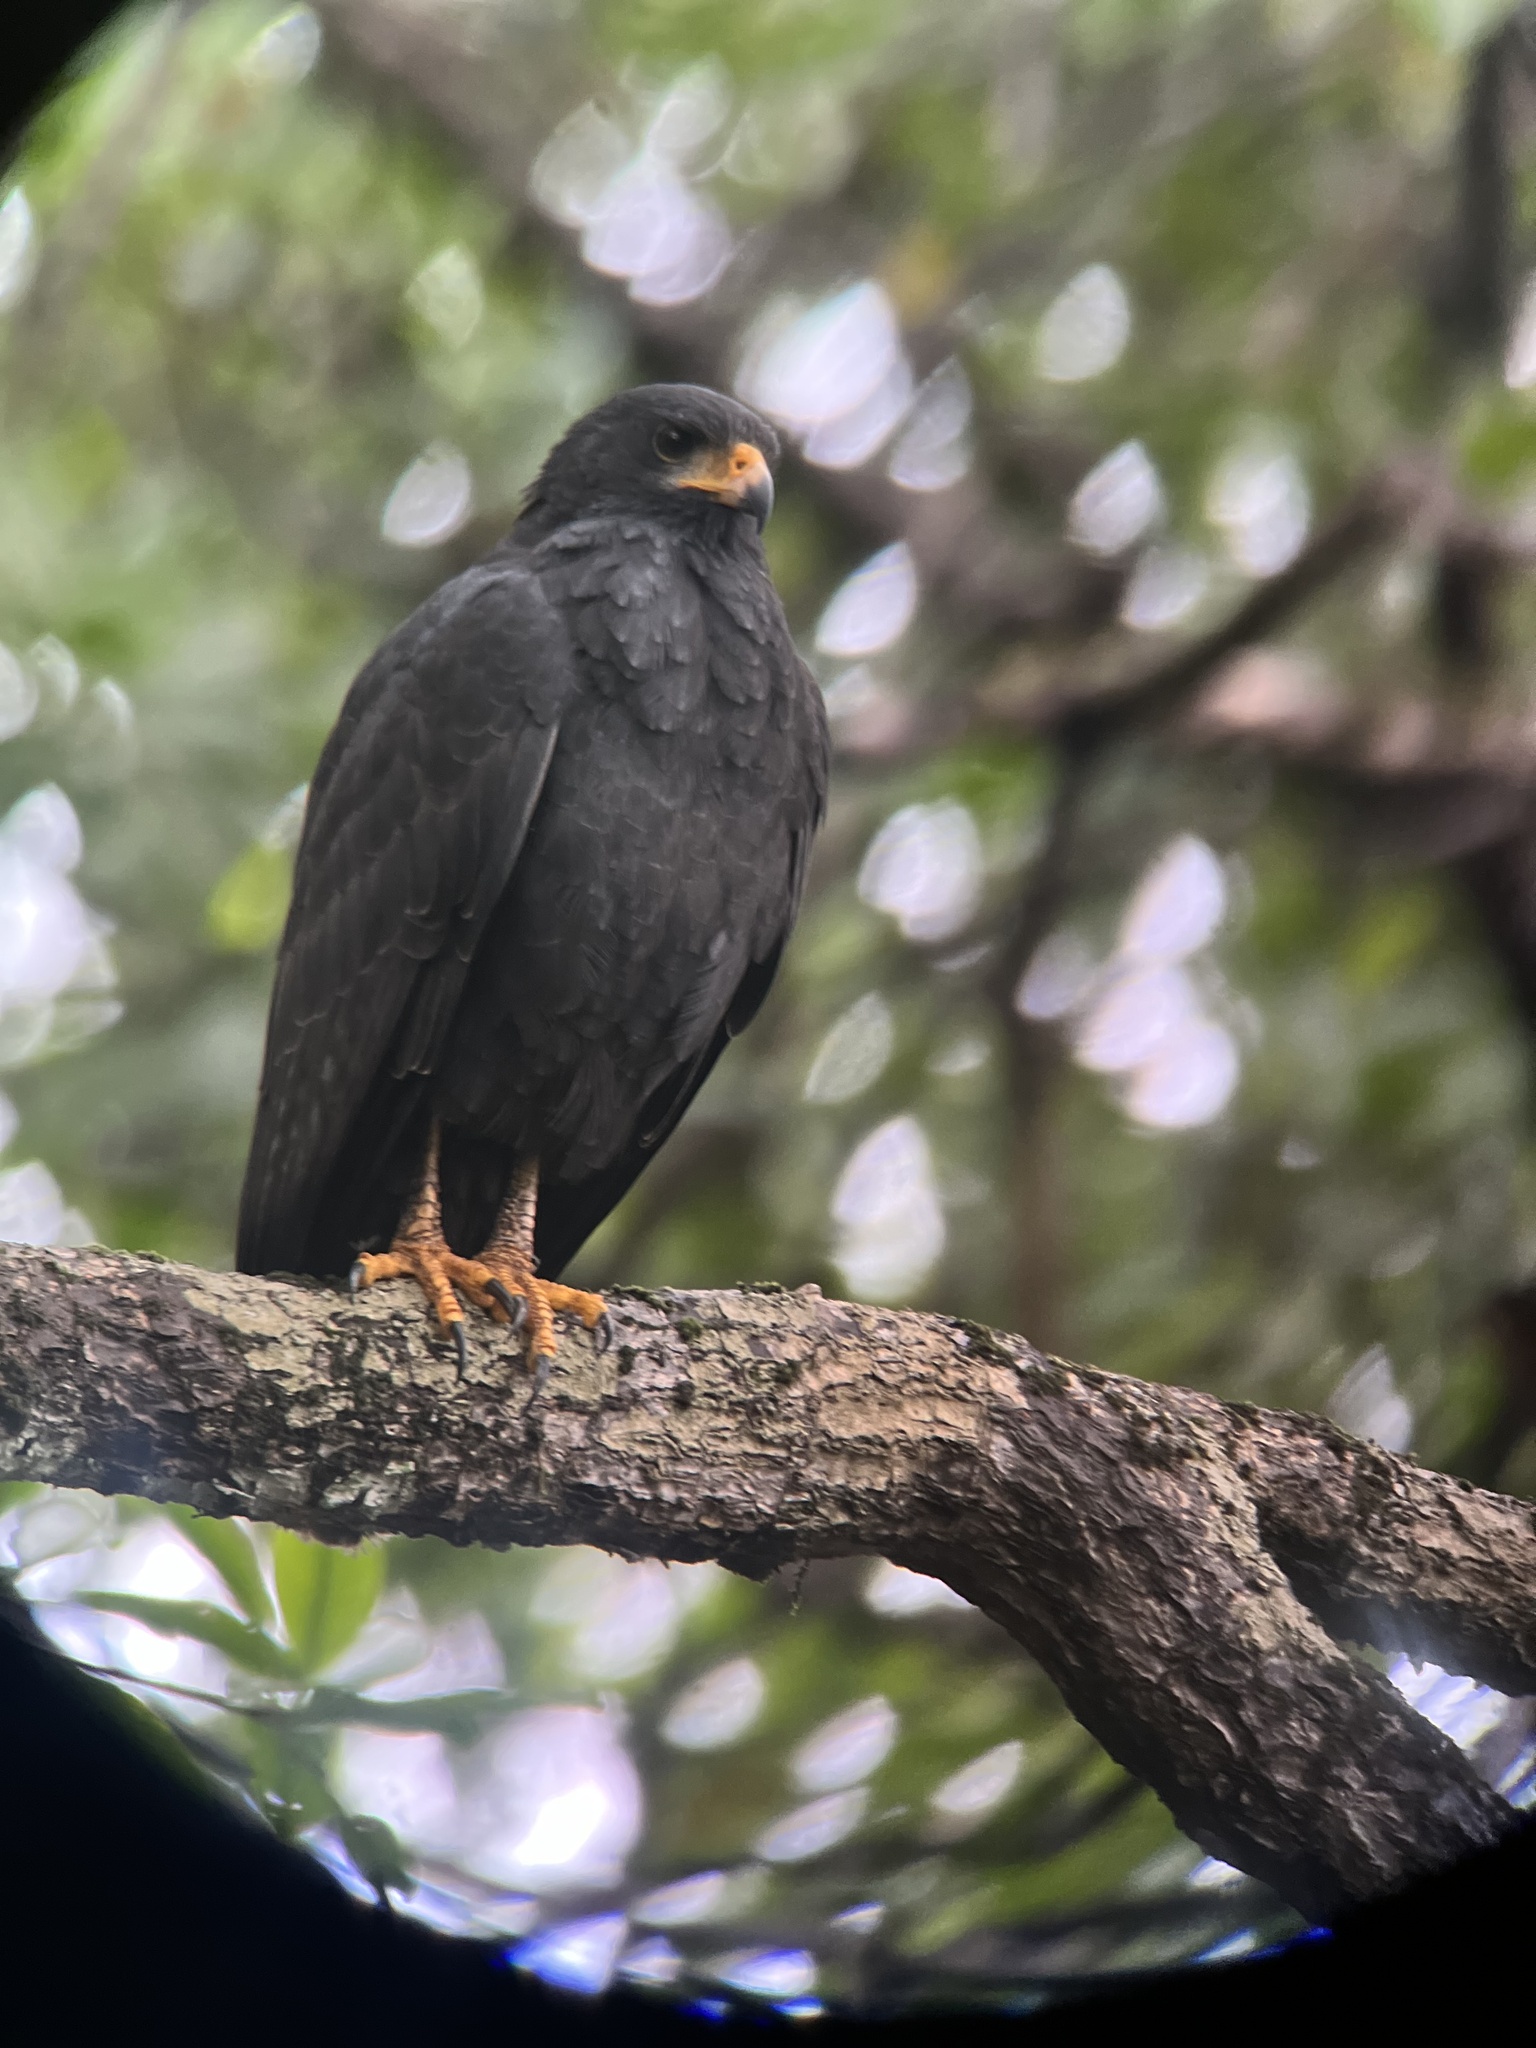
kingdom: Animalia
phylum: Chordata
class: Aves
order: Accipitriformes
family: Accipitridae
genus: Buteogallus
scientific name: Buteogallus anthracinus
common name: Common black hawk
